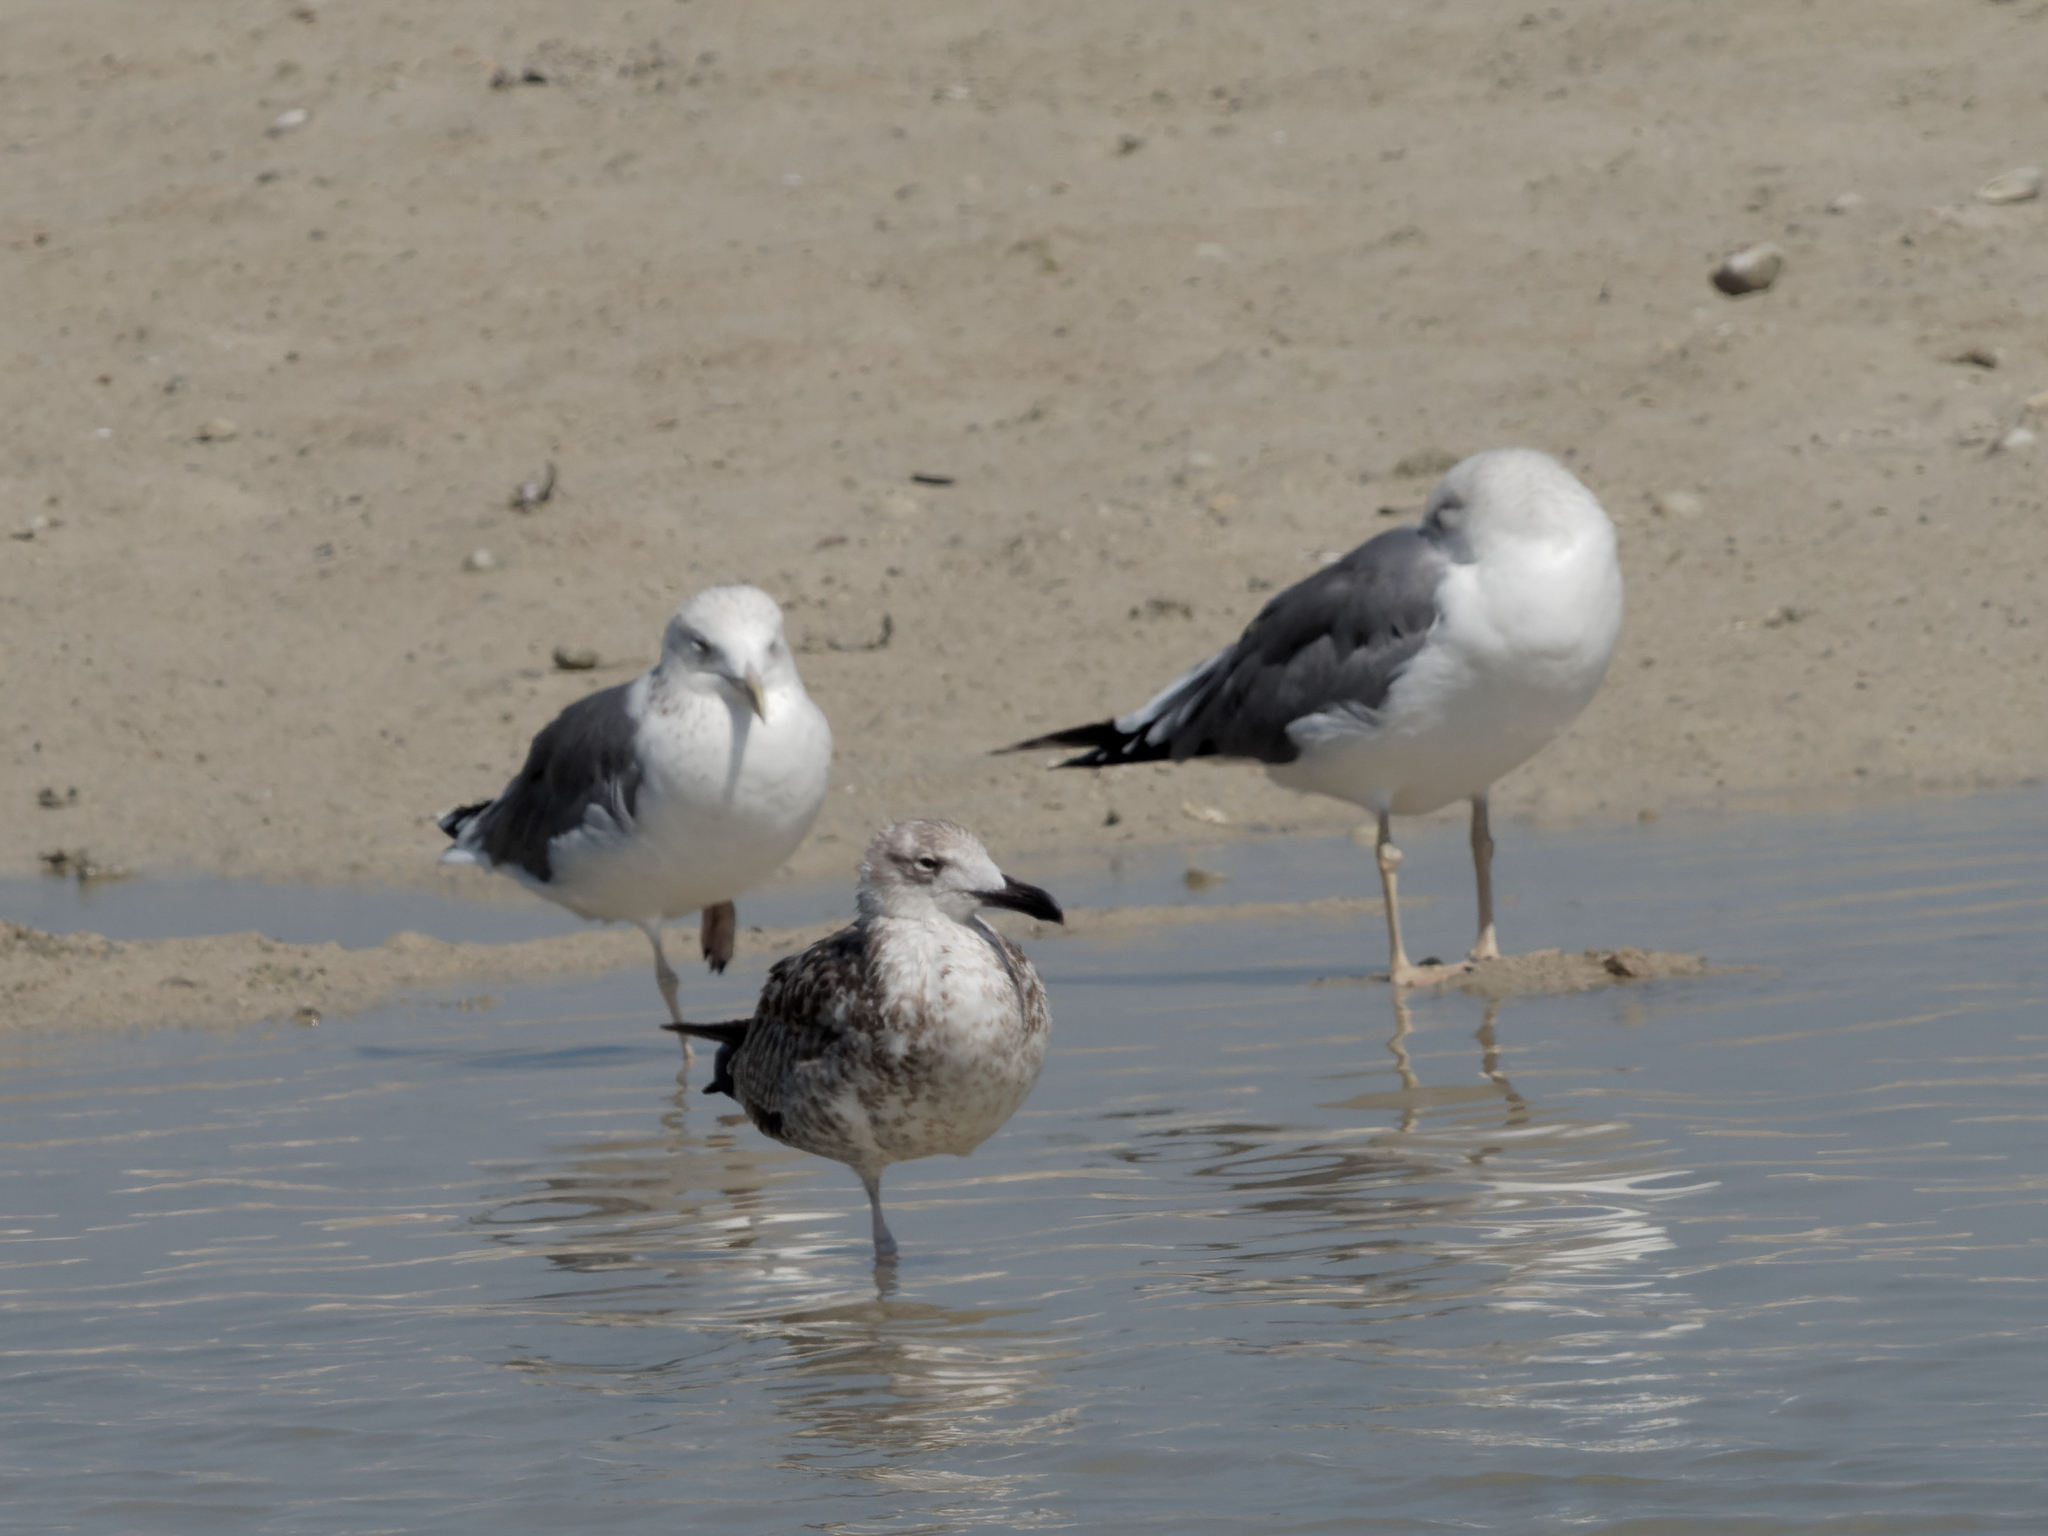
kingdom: Animalia
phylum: Chordata
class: Aves
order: Charadriiformes
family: Laridae
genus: Larus
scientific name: Larus fuscus
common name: Lesser black-backed gull
